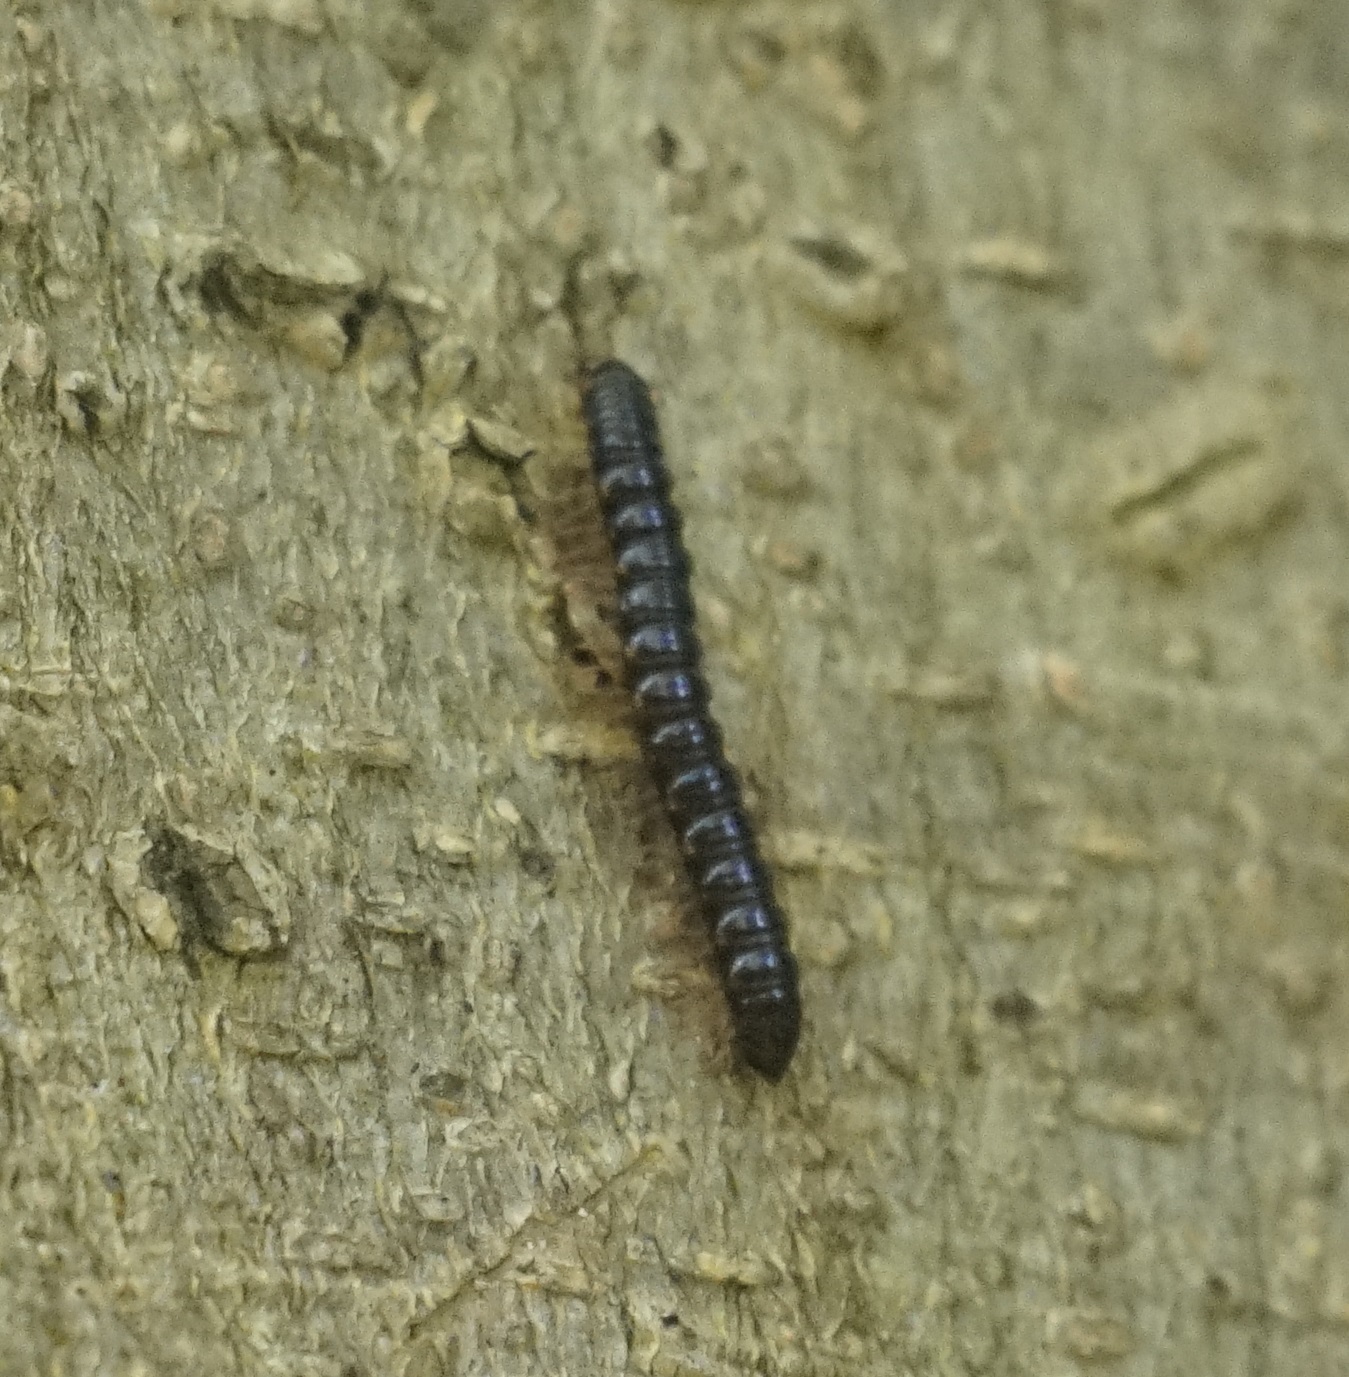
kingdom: Animalia
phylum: Arthropoda
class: Diplopoda
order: Polydesmida
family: Paradoxosomatidae
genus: Heterocladosoma
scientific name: Heterocladosoma
